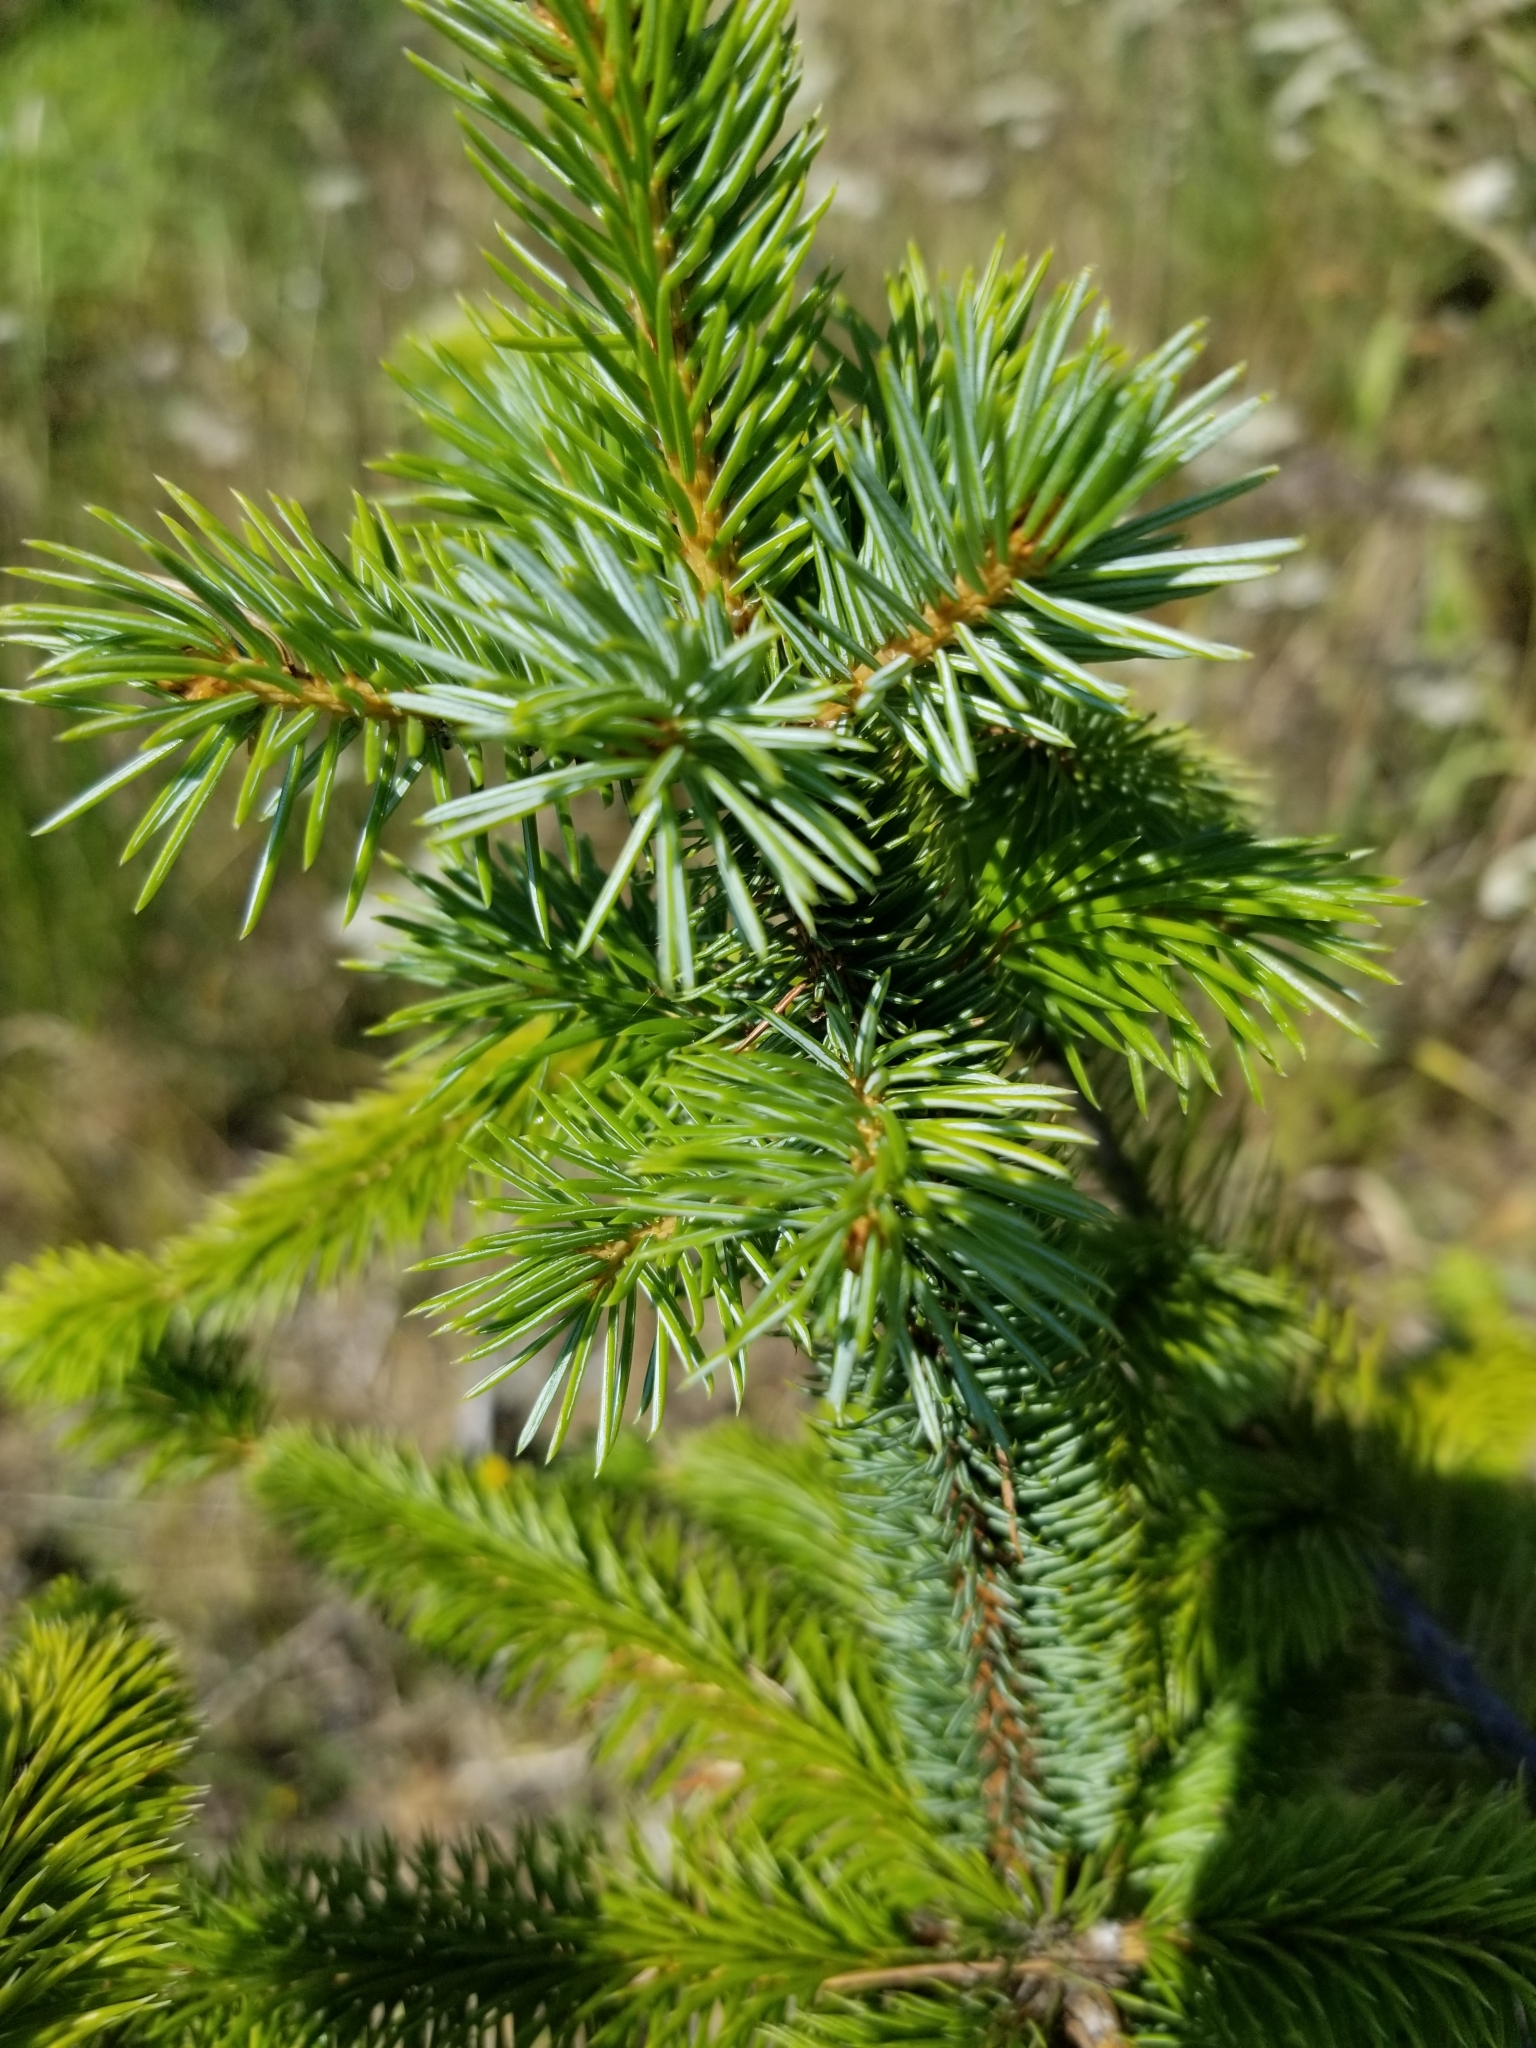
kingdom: Plantae
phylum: Tracheophyta
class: Pinopsida
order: Pinales
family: Pinaceae
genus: Picea
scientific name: Picea sitchensis
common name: Sitka spruce
